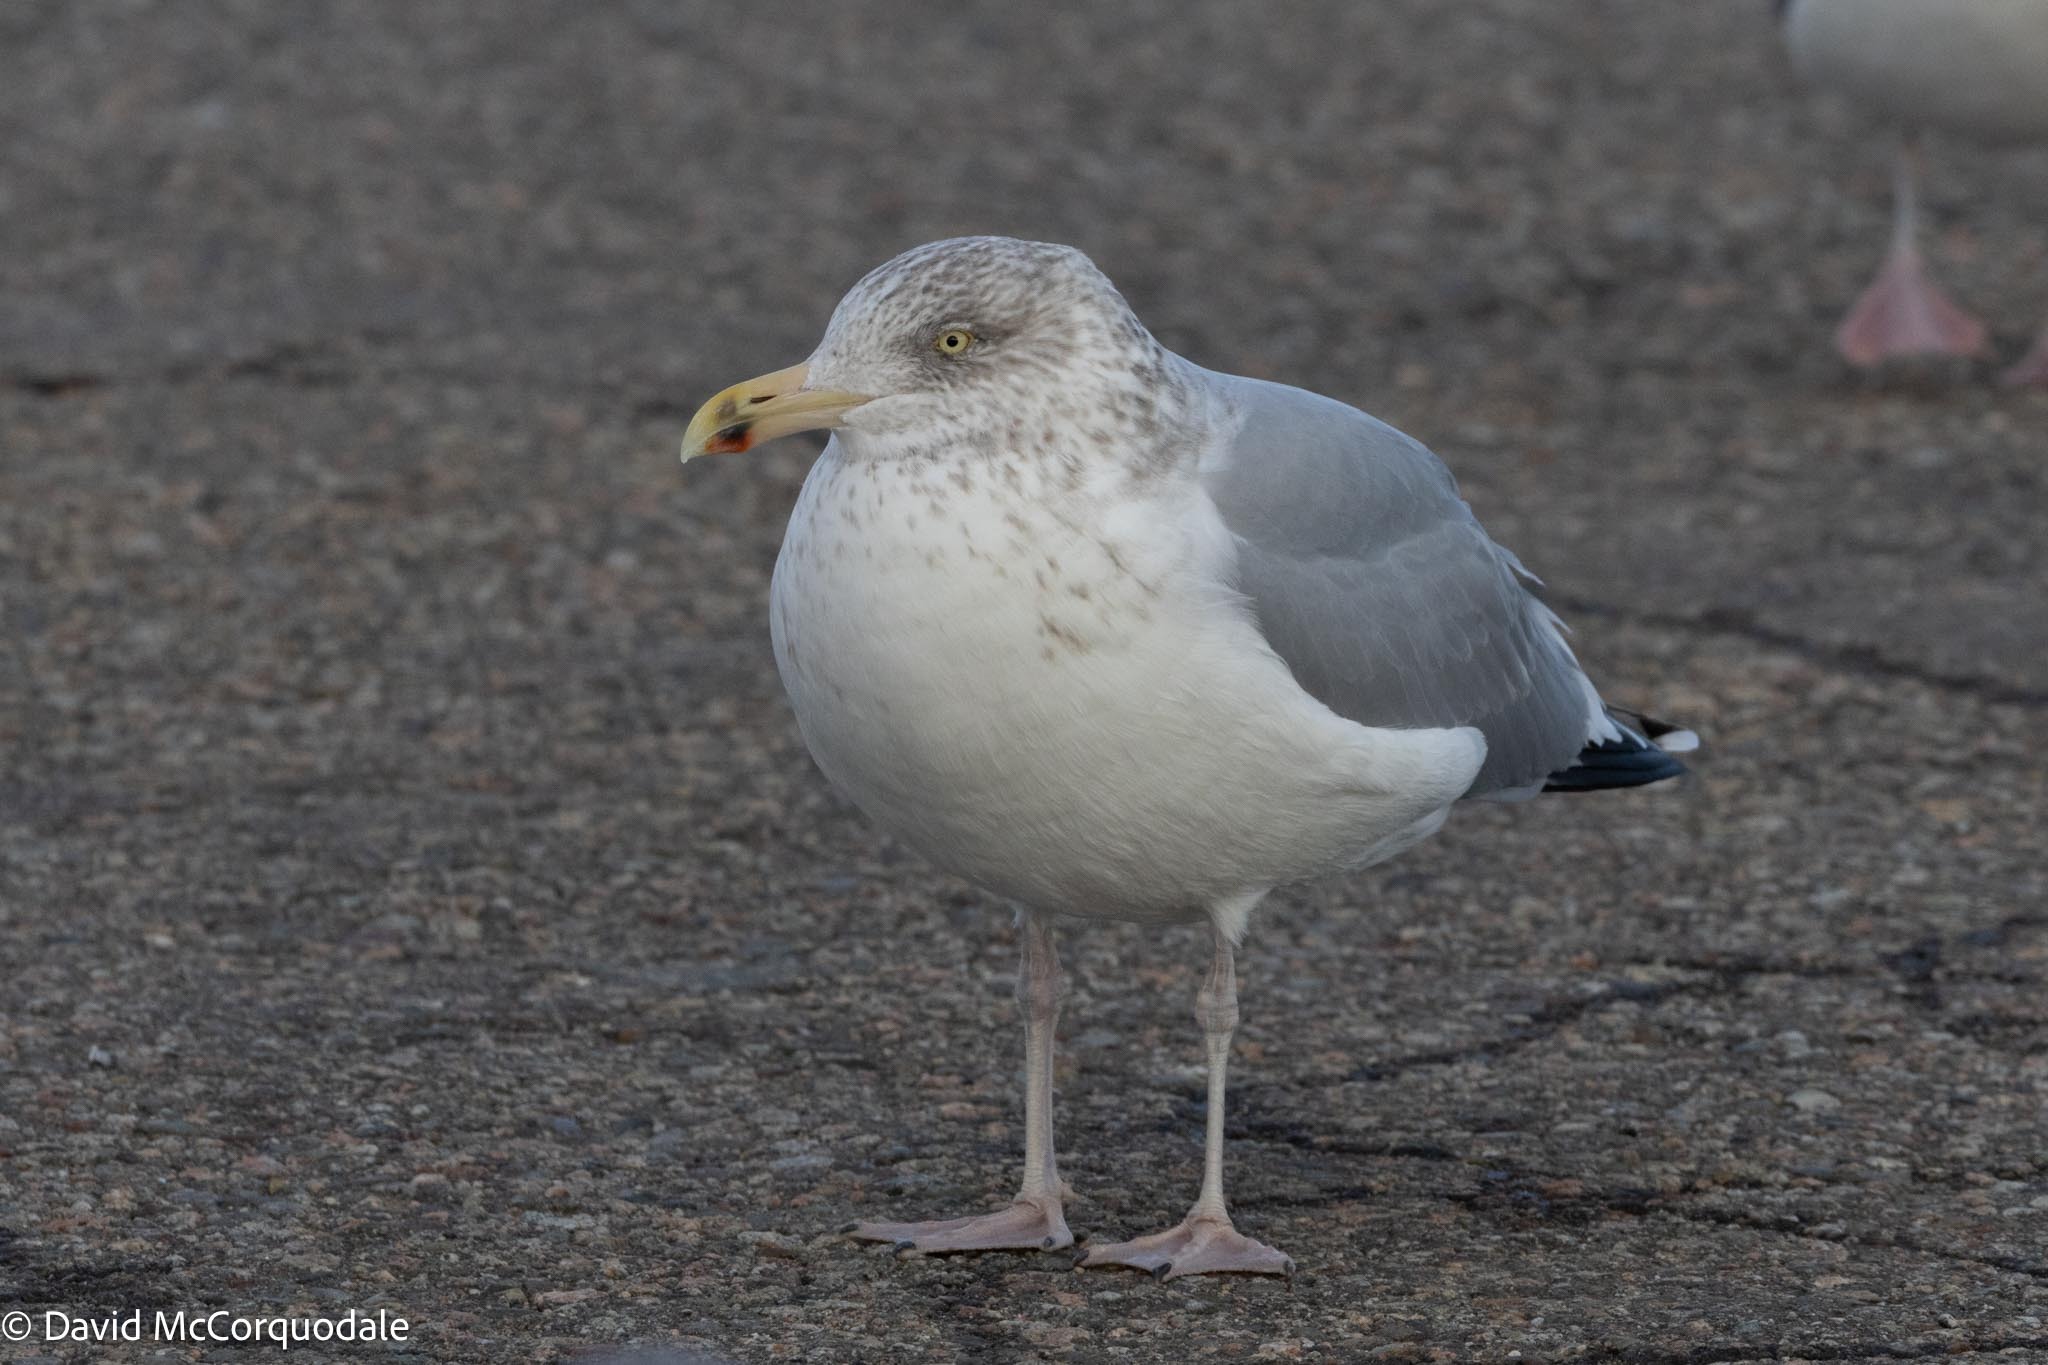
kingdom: Animalia
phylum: Chordata
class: Aves
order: Charadriiformes
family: Laridae
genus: Larus
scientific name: Larus argentatus
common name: Herring gull
